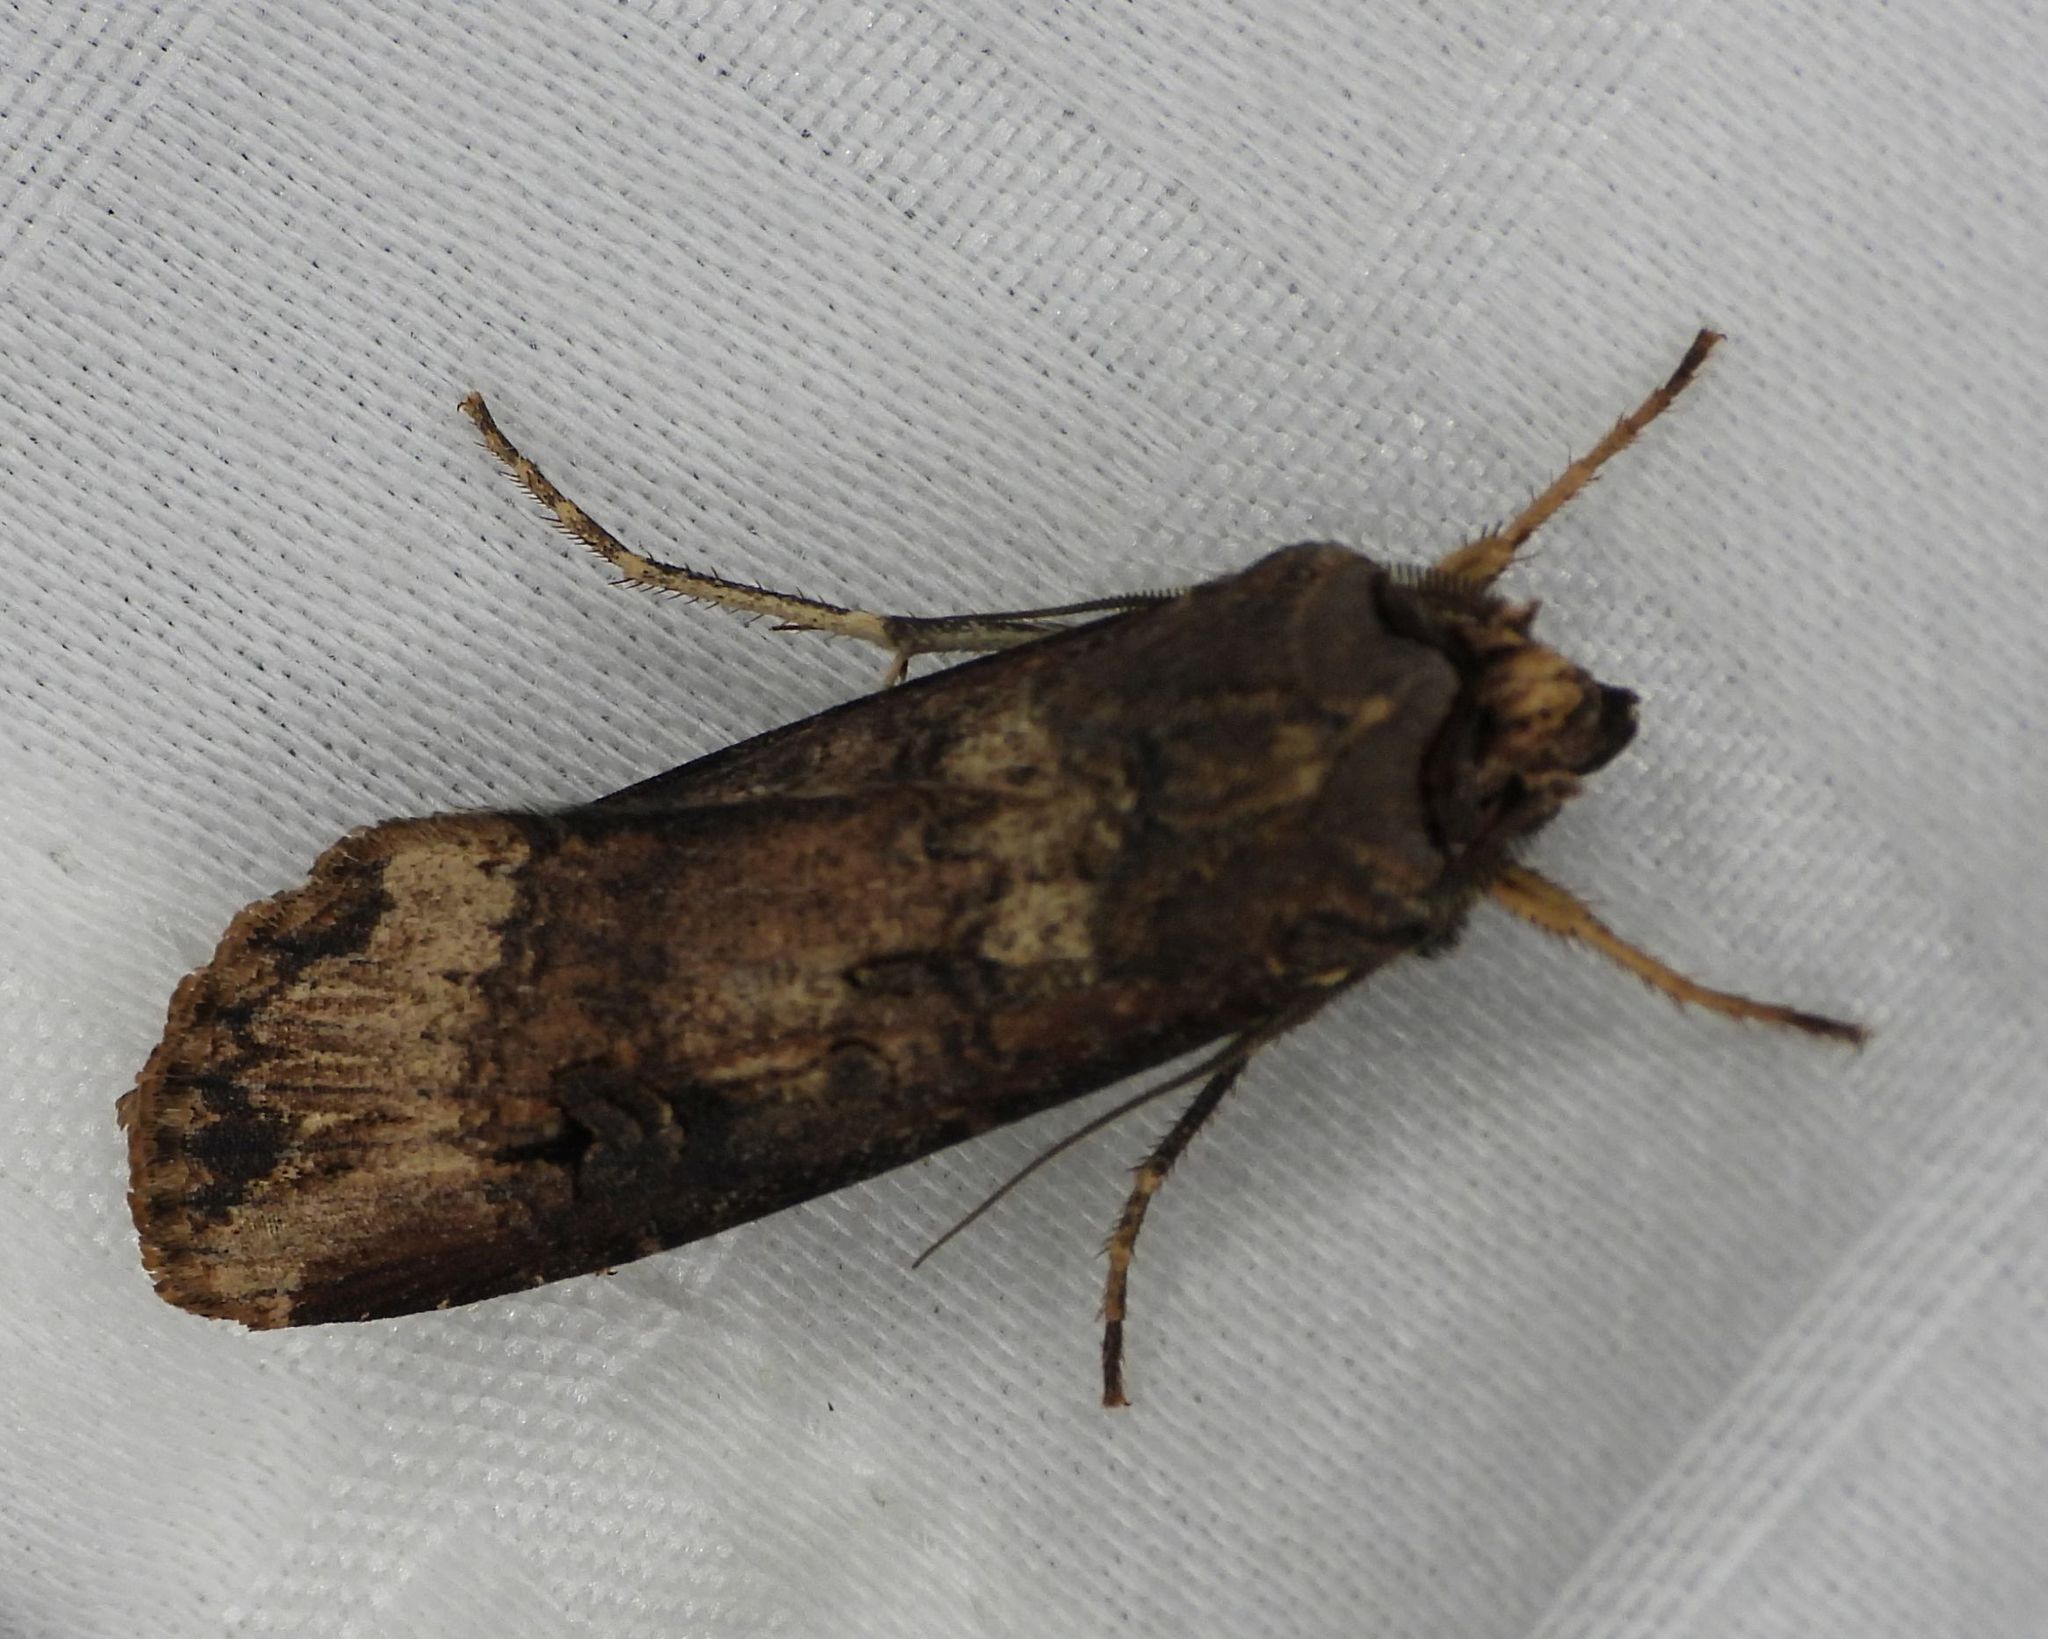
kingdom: Animalia
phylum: Arthropoda
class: Insecta
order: Lepidoptera
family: Noctuidae
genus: Agrotis
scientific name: Agrotis ipsilon
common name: Dark sword-grass
